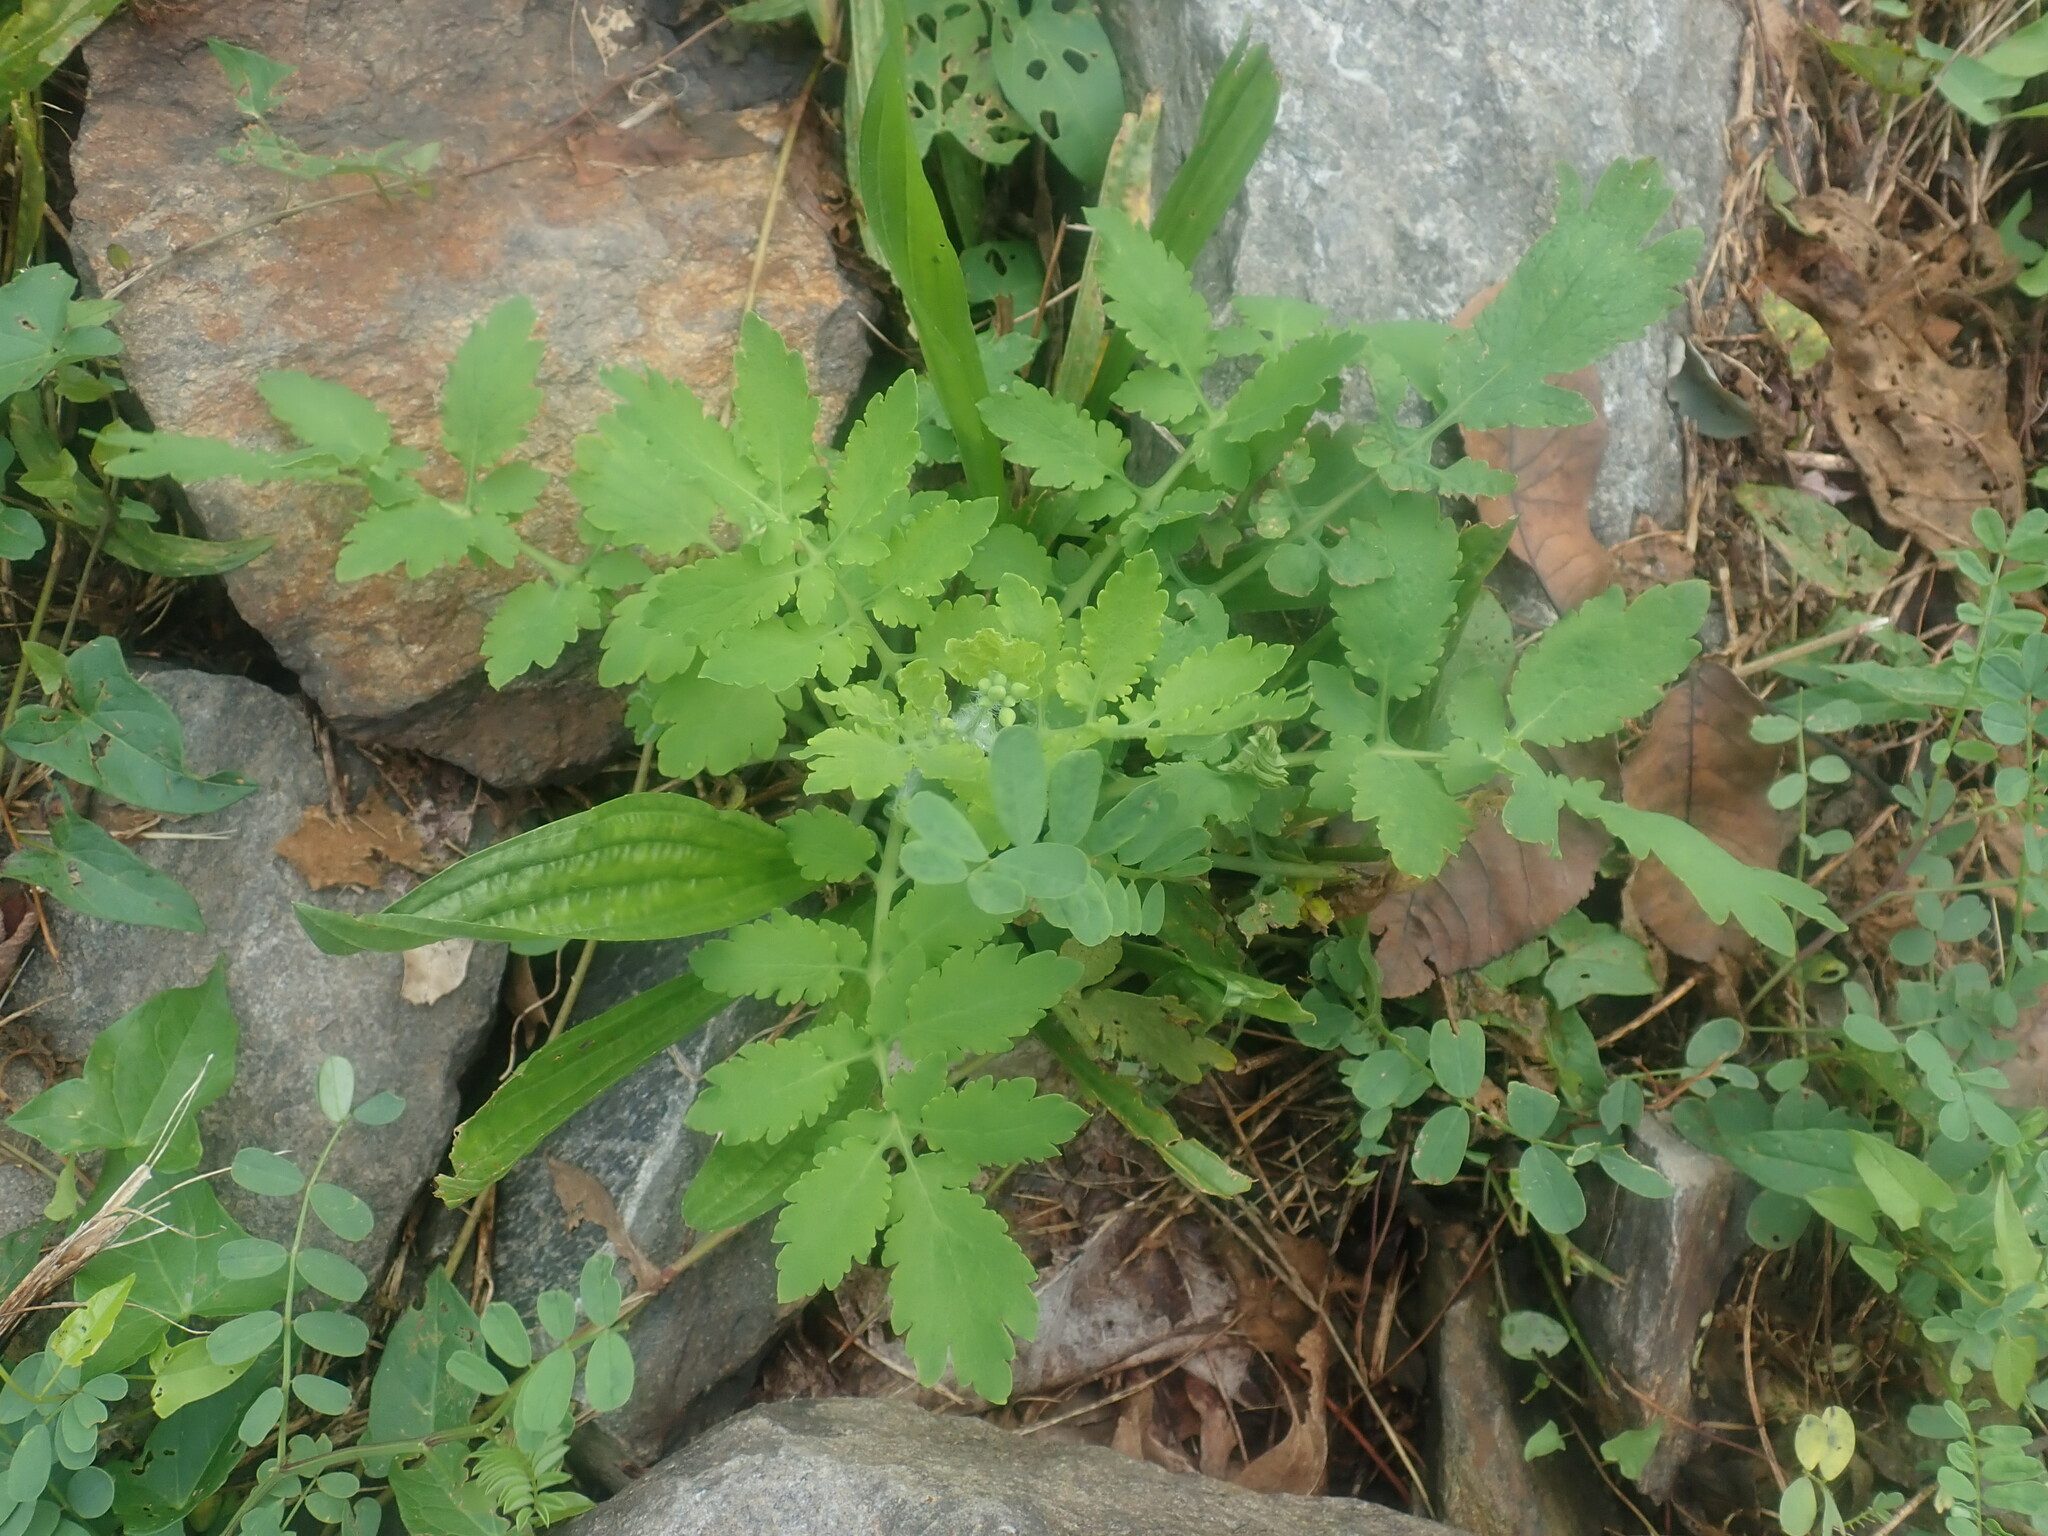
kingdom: Plantae
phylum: Tracheophyta
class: Magnoliopsida
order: Ranunculales
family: Papaveraceae
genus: Chelidonium
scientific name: Chelidonium majus
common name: Greater celandine
